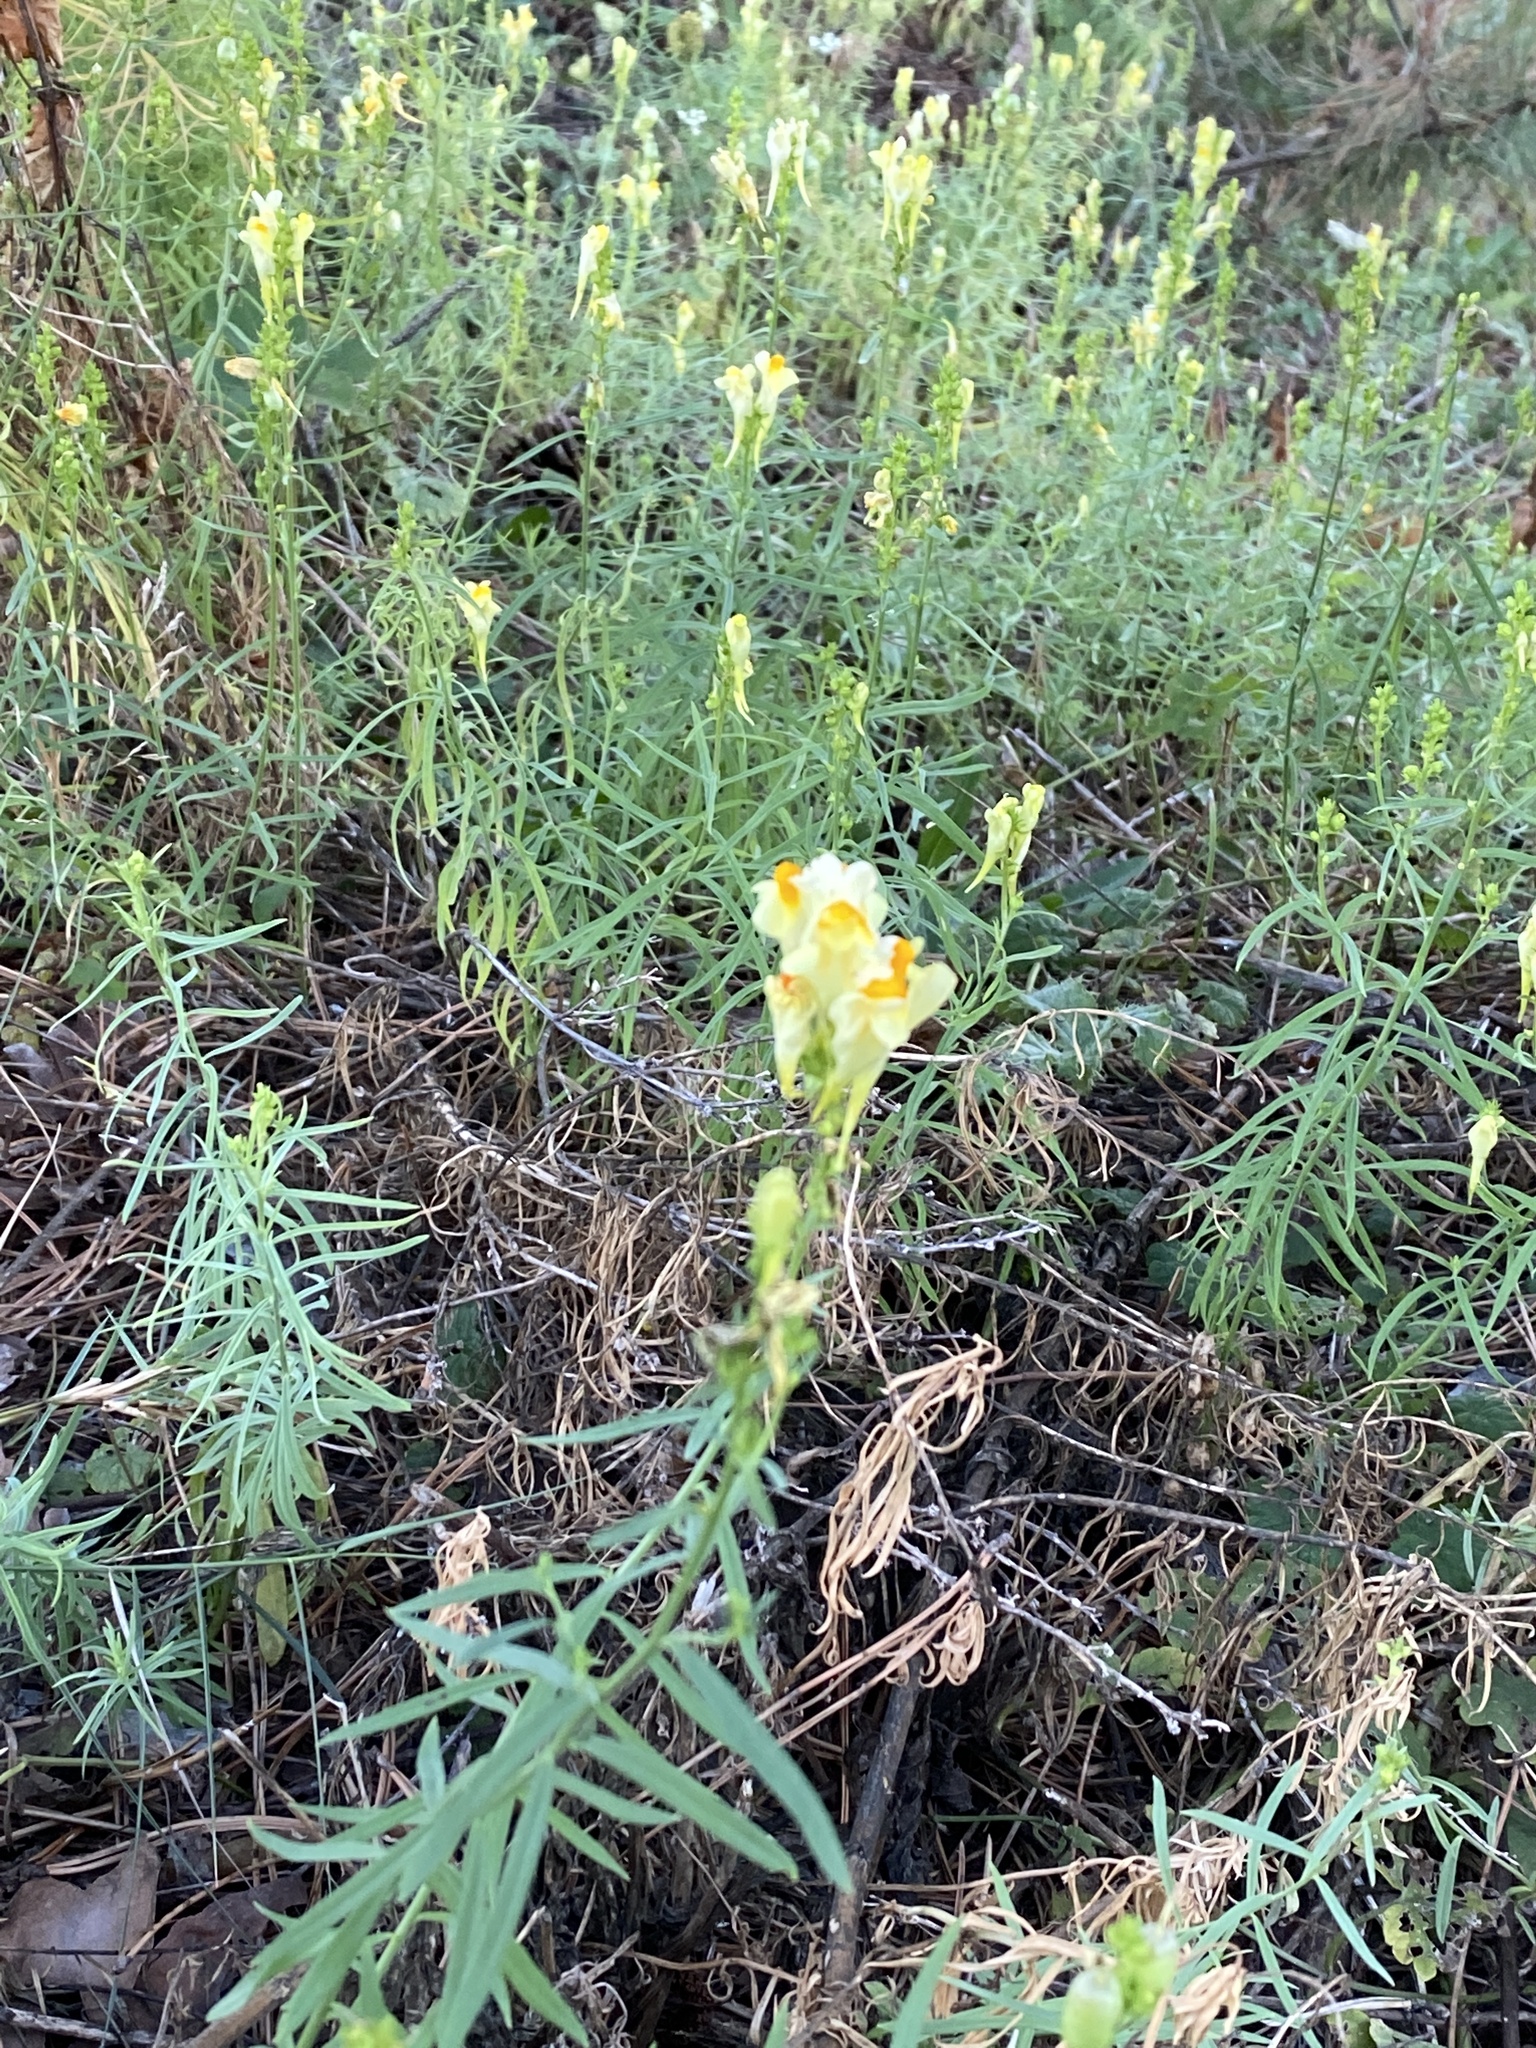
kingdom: Plantae
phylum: Tracheophyta
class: Magnoliopsida
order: Lamiales
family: Plantaginaceae
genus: Linaria
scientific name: Linaria vulgaris
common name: Butter and eggs
